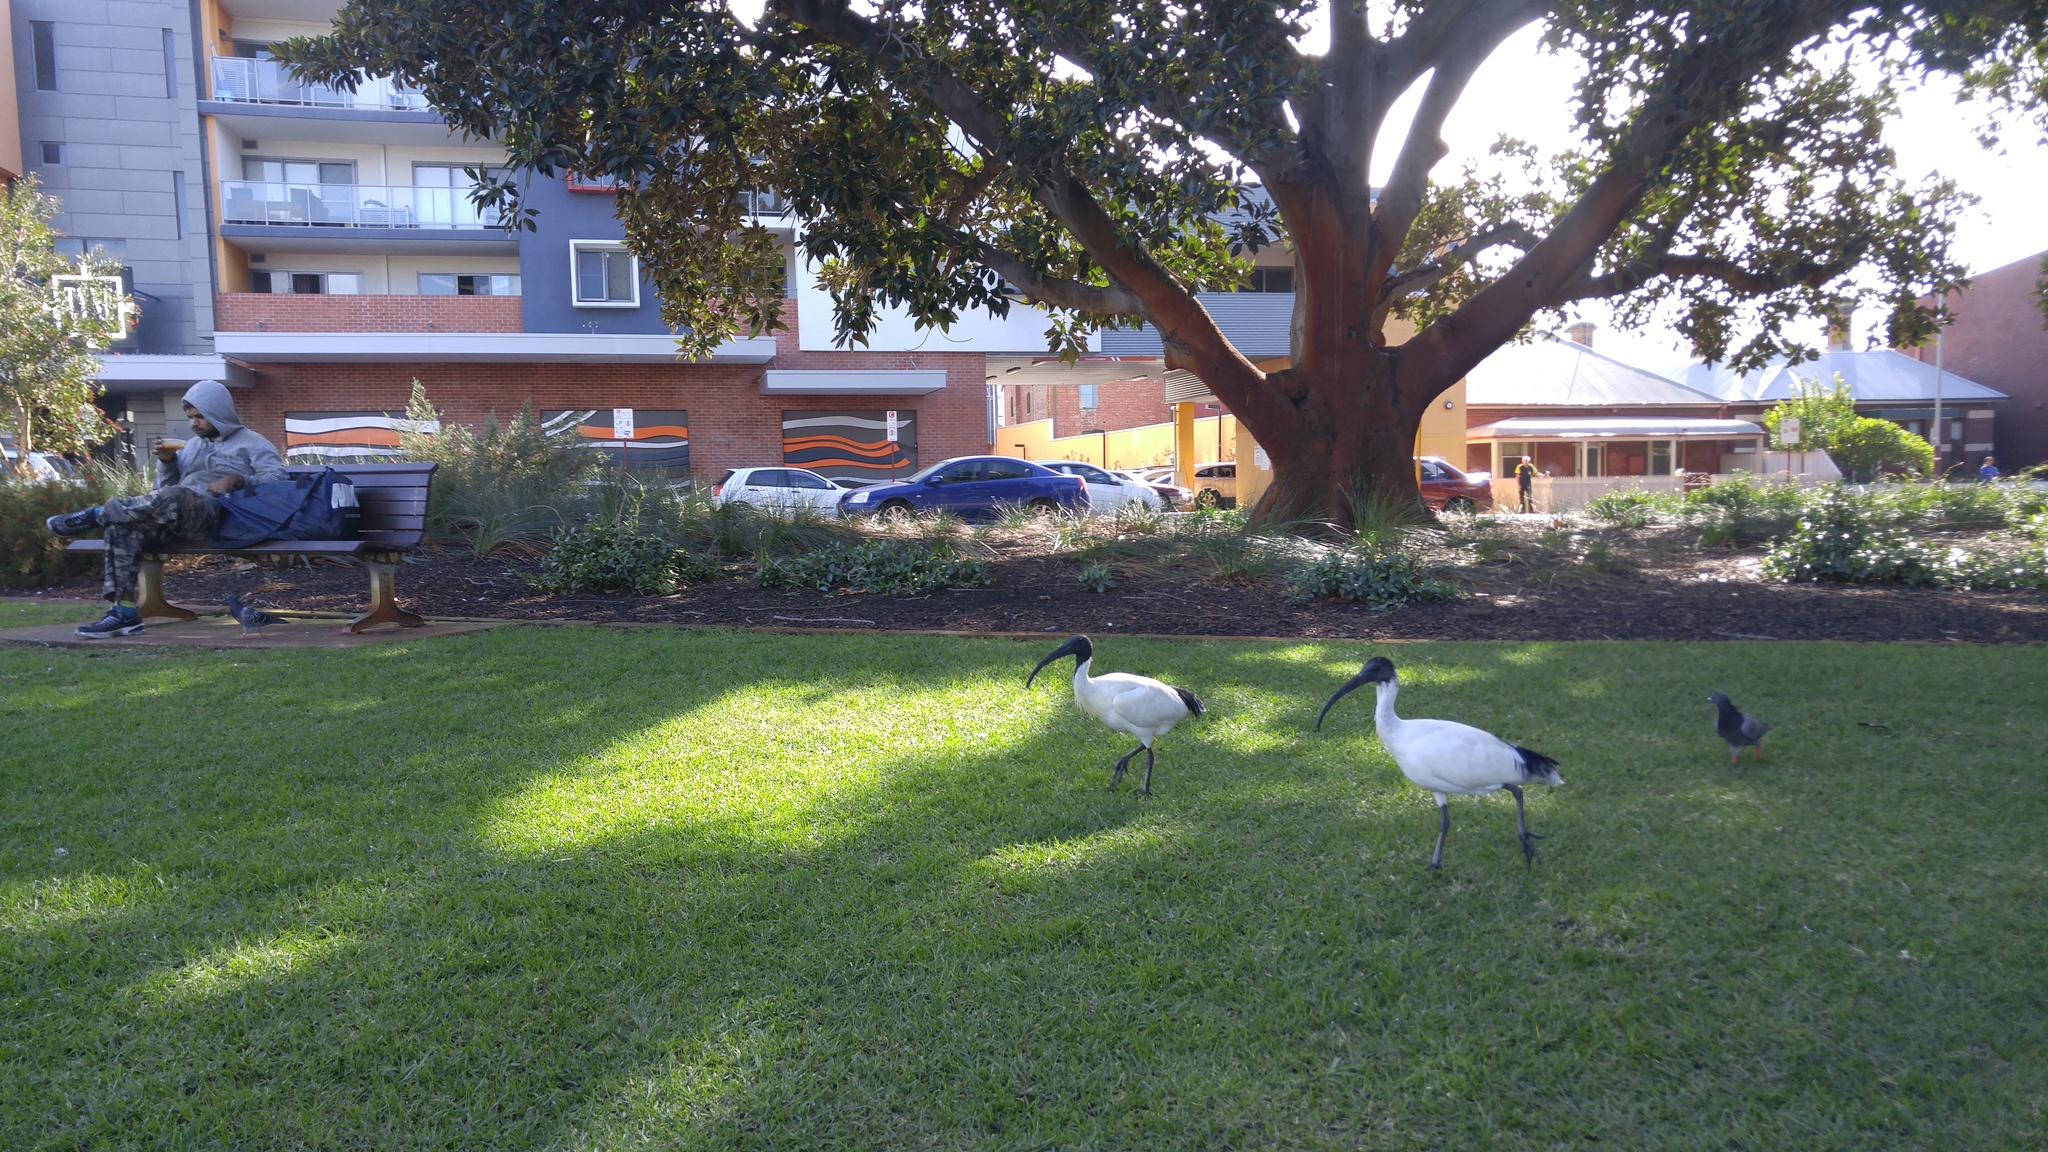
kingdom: Animalia
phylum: Chordata
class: Aves
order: Pelecaniformes
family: Threskiornithidae
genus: Threskiornis
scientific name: Threskiornis molucca
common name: Australian white ibis
